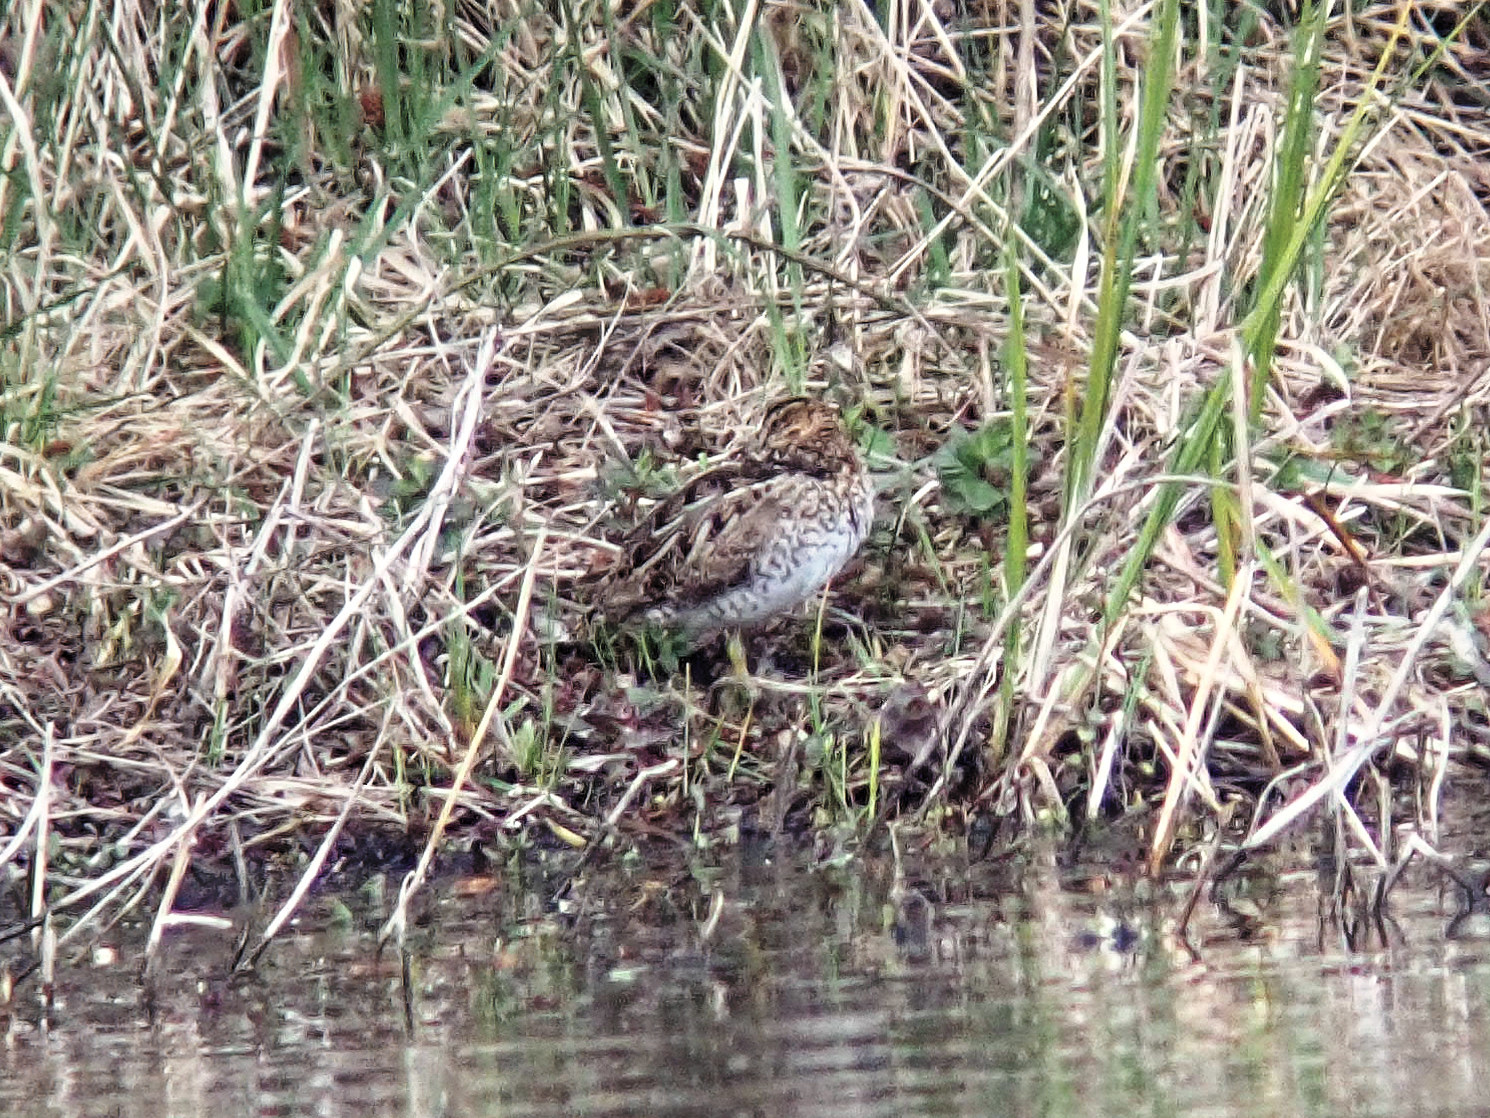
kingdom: Animalia
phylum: Chordata
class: Aves
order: Charadriiformes
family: Scolopacidae
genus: Gallinago
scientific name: Gallinago gallinago
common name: Common snipe
